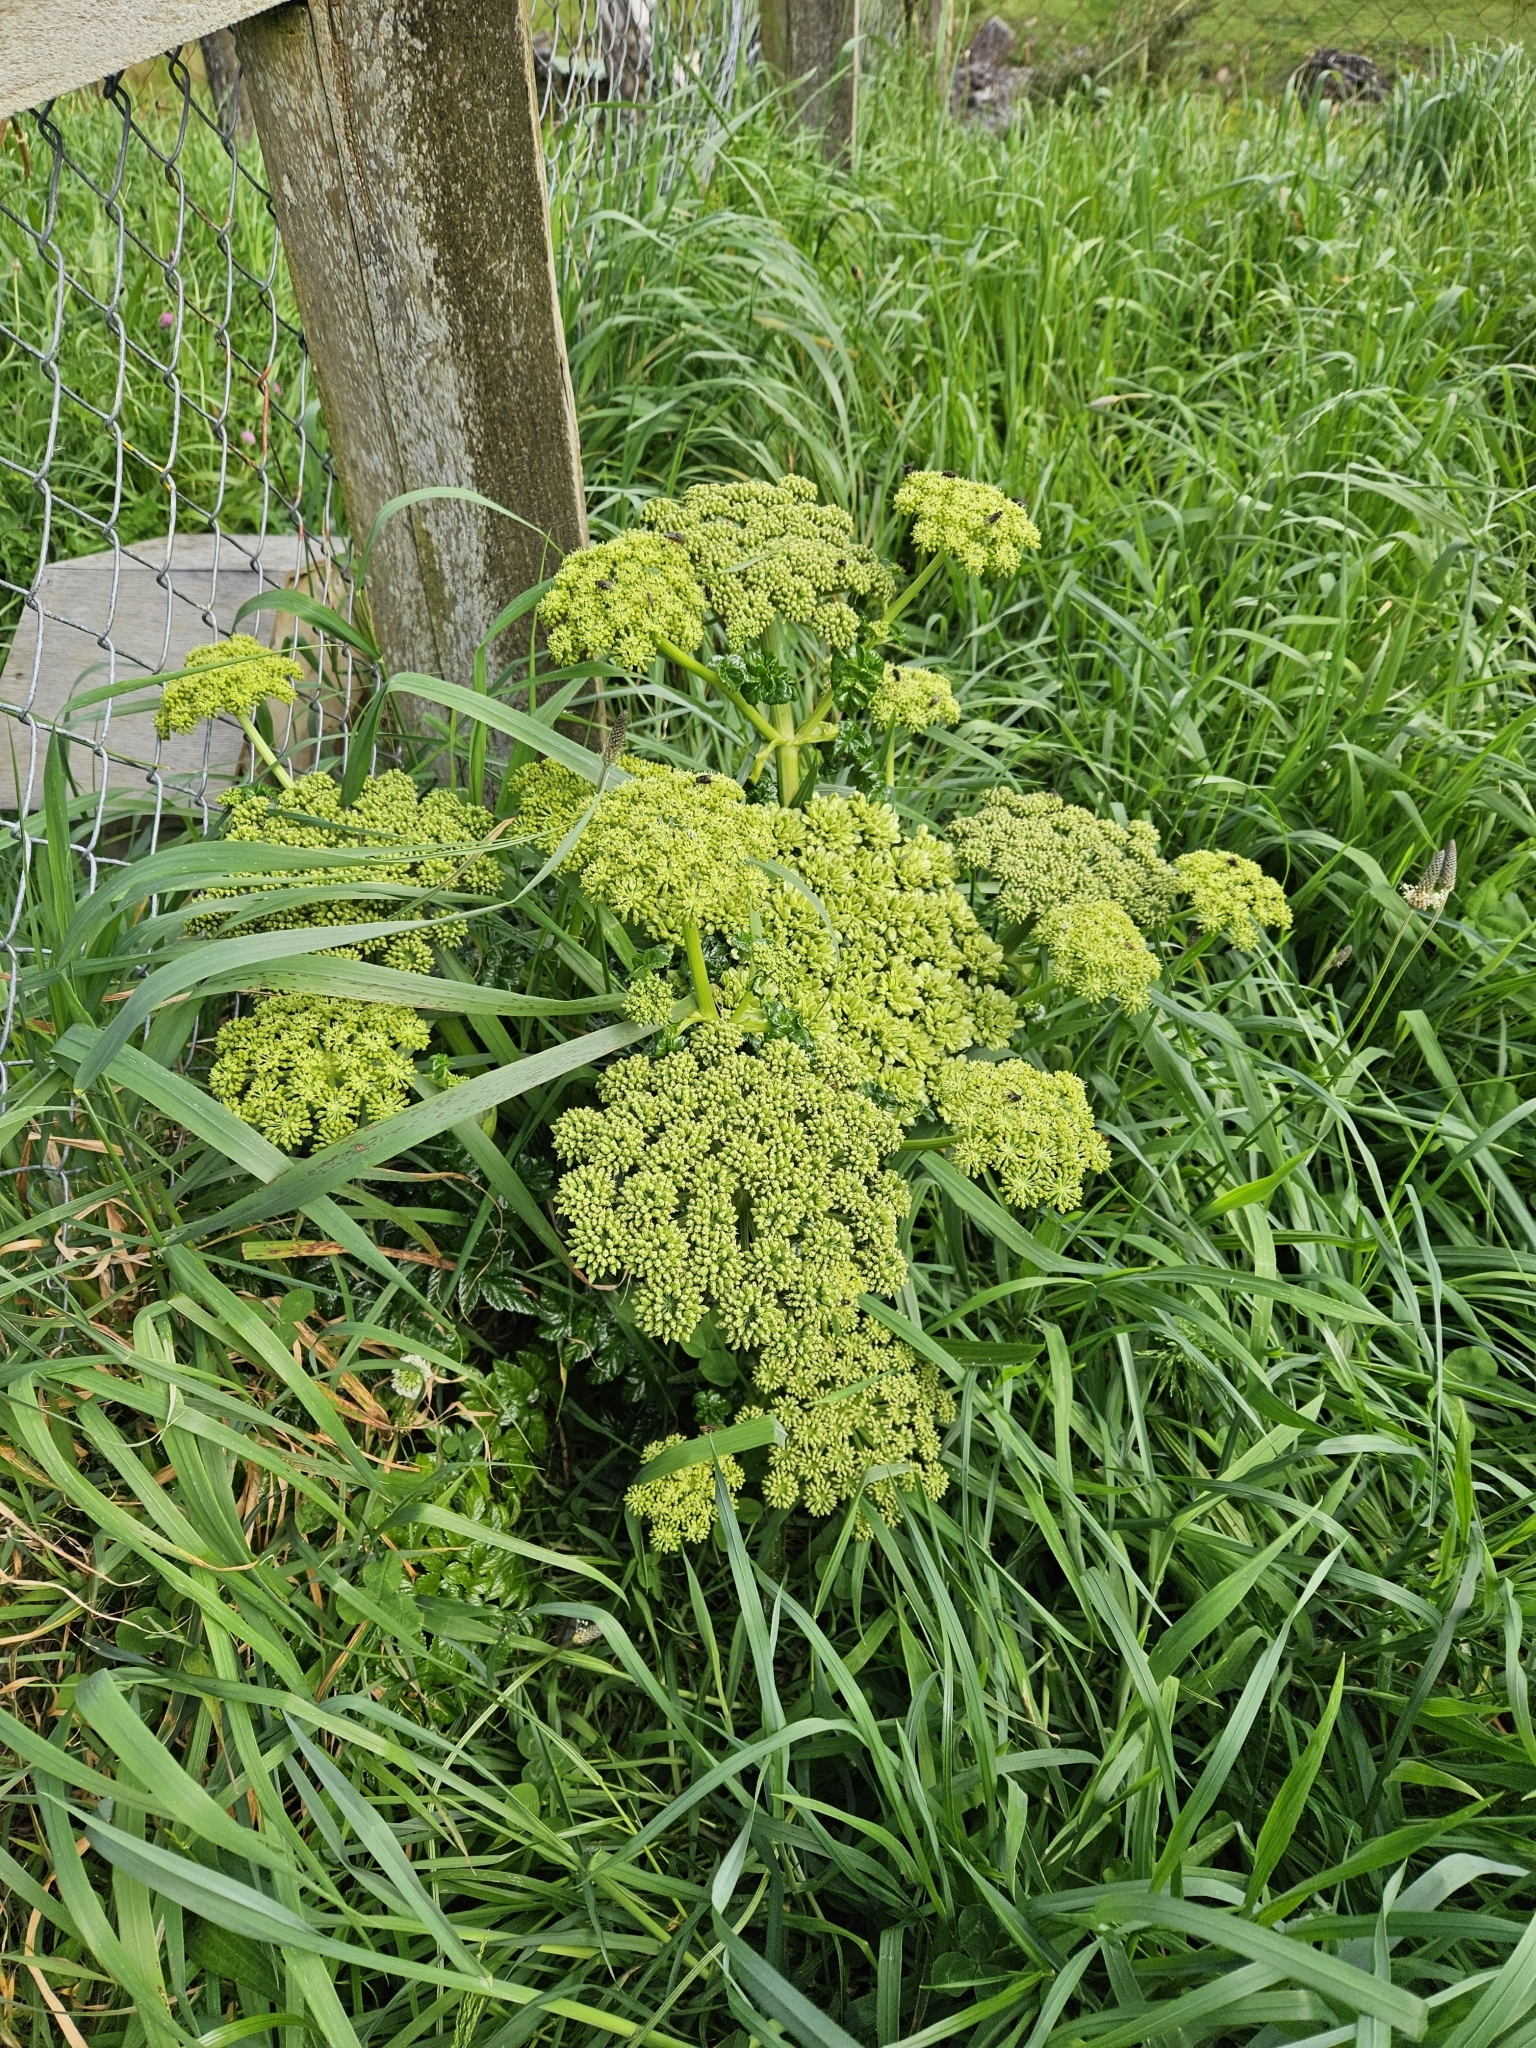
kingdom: Plantae
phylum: Tracheophyta
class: Magnoliopsida
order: Apiales
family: Apiaceae
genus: Angelica
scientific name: Angelica pachycarpa
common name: Portuguese angelica
